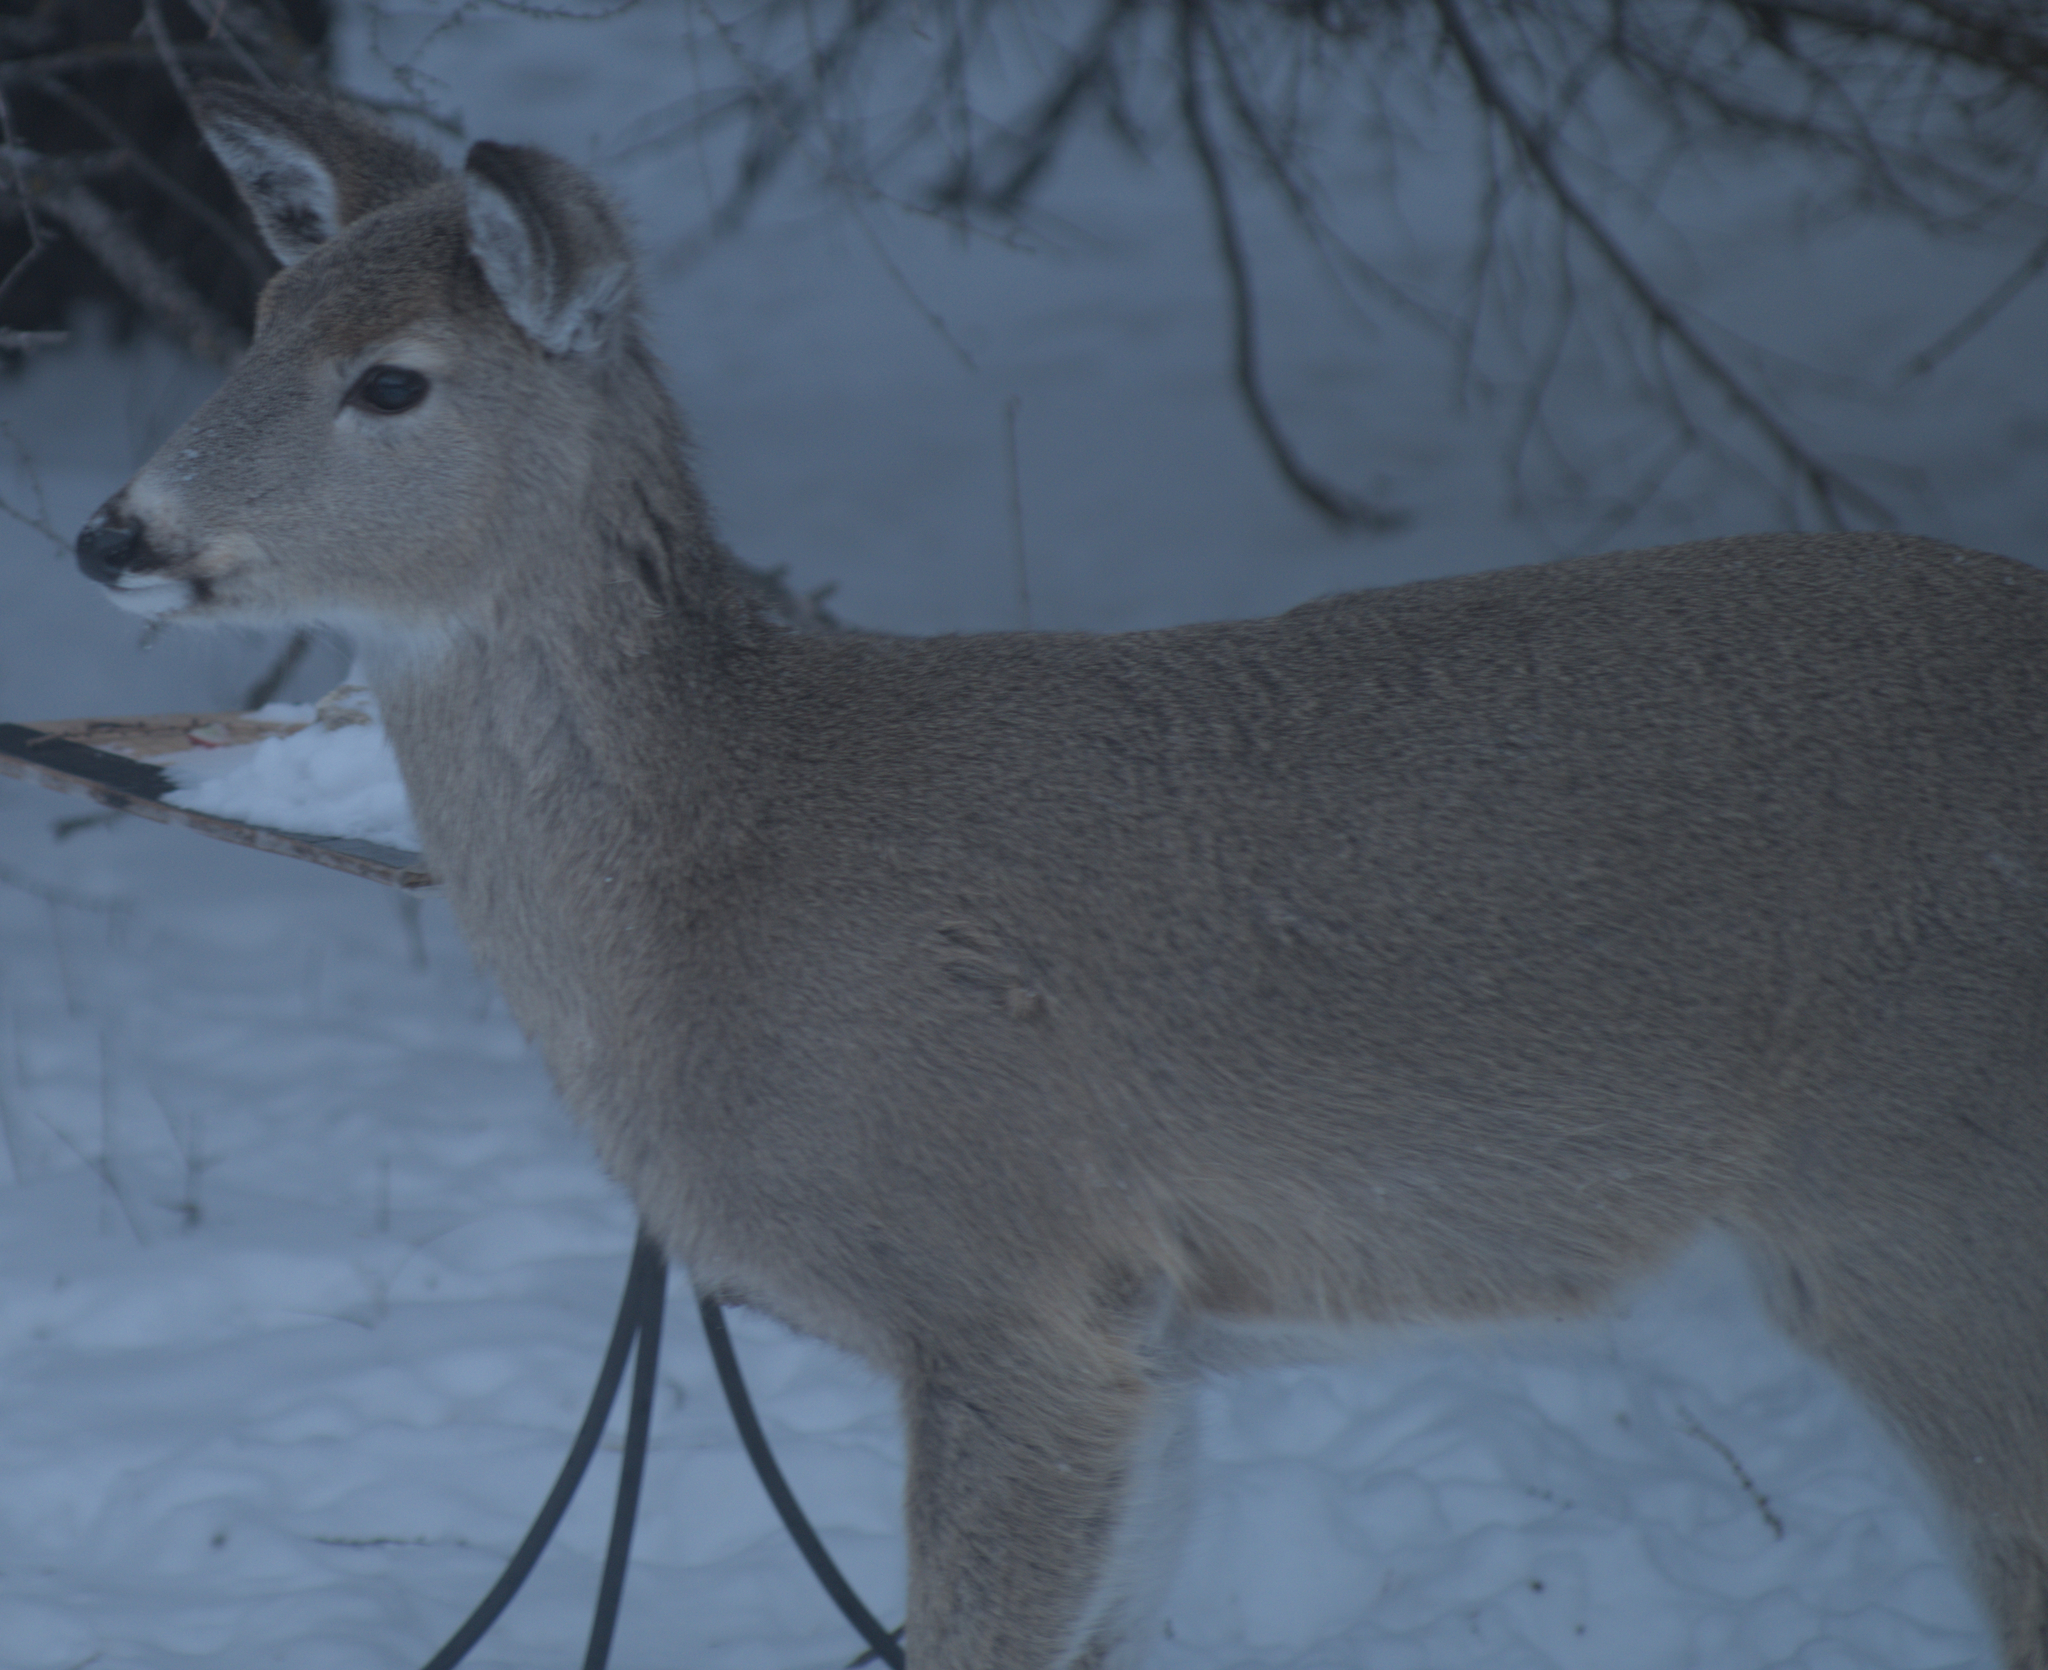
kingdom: Animalia
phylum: Chordata
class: Mammalia
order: Artiodactyla
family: Cervidae
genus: Odocoileus
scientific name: Odocoileus virginianus
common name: White-tailed deer
